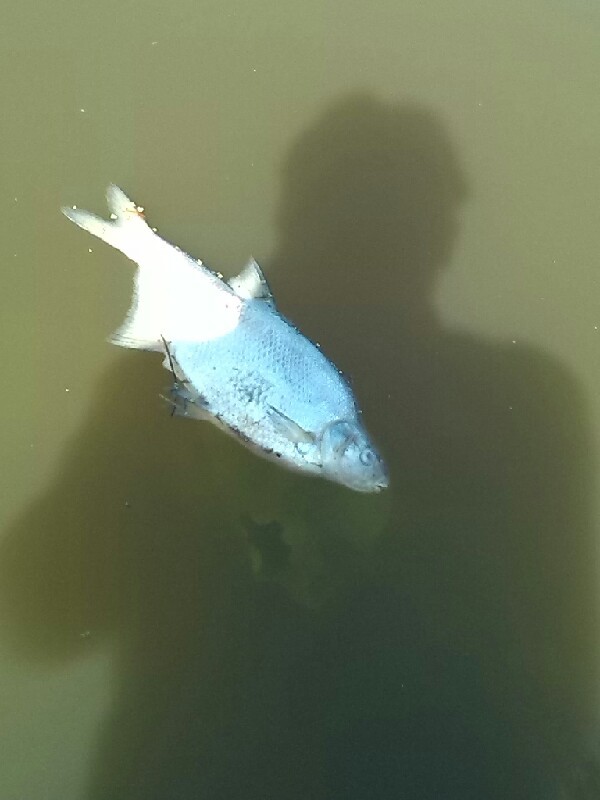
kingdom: Animalia
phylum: Chordata
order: Cypriniformes
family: Cyprinidae
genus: Abramis
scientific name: Abramis brama
